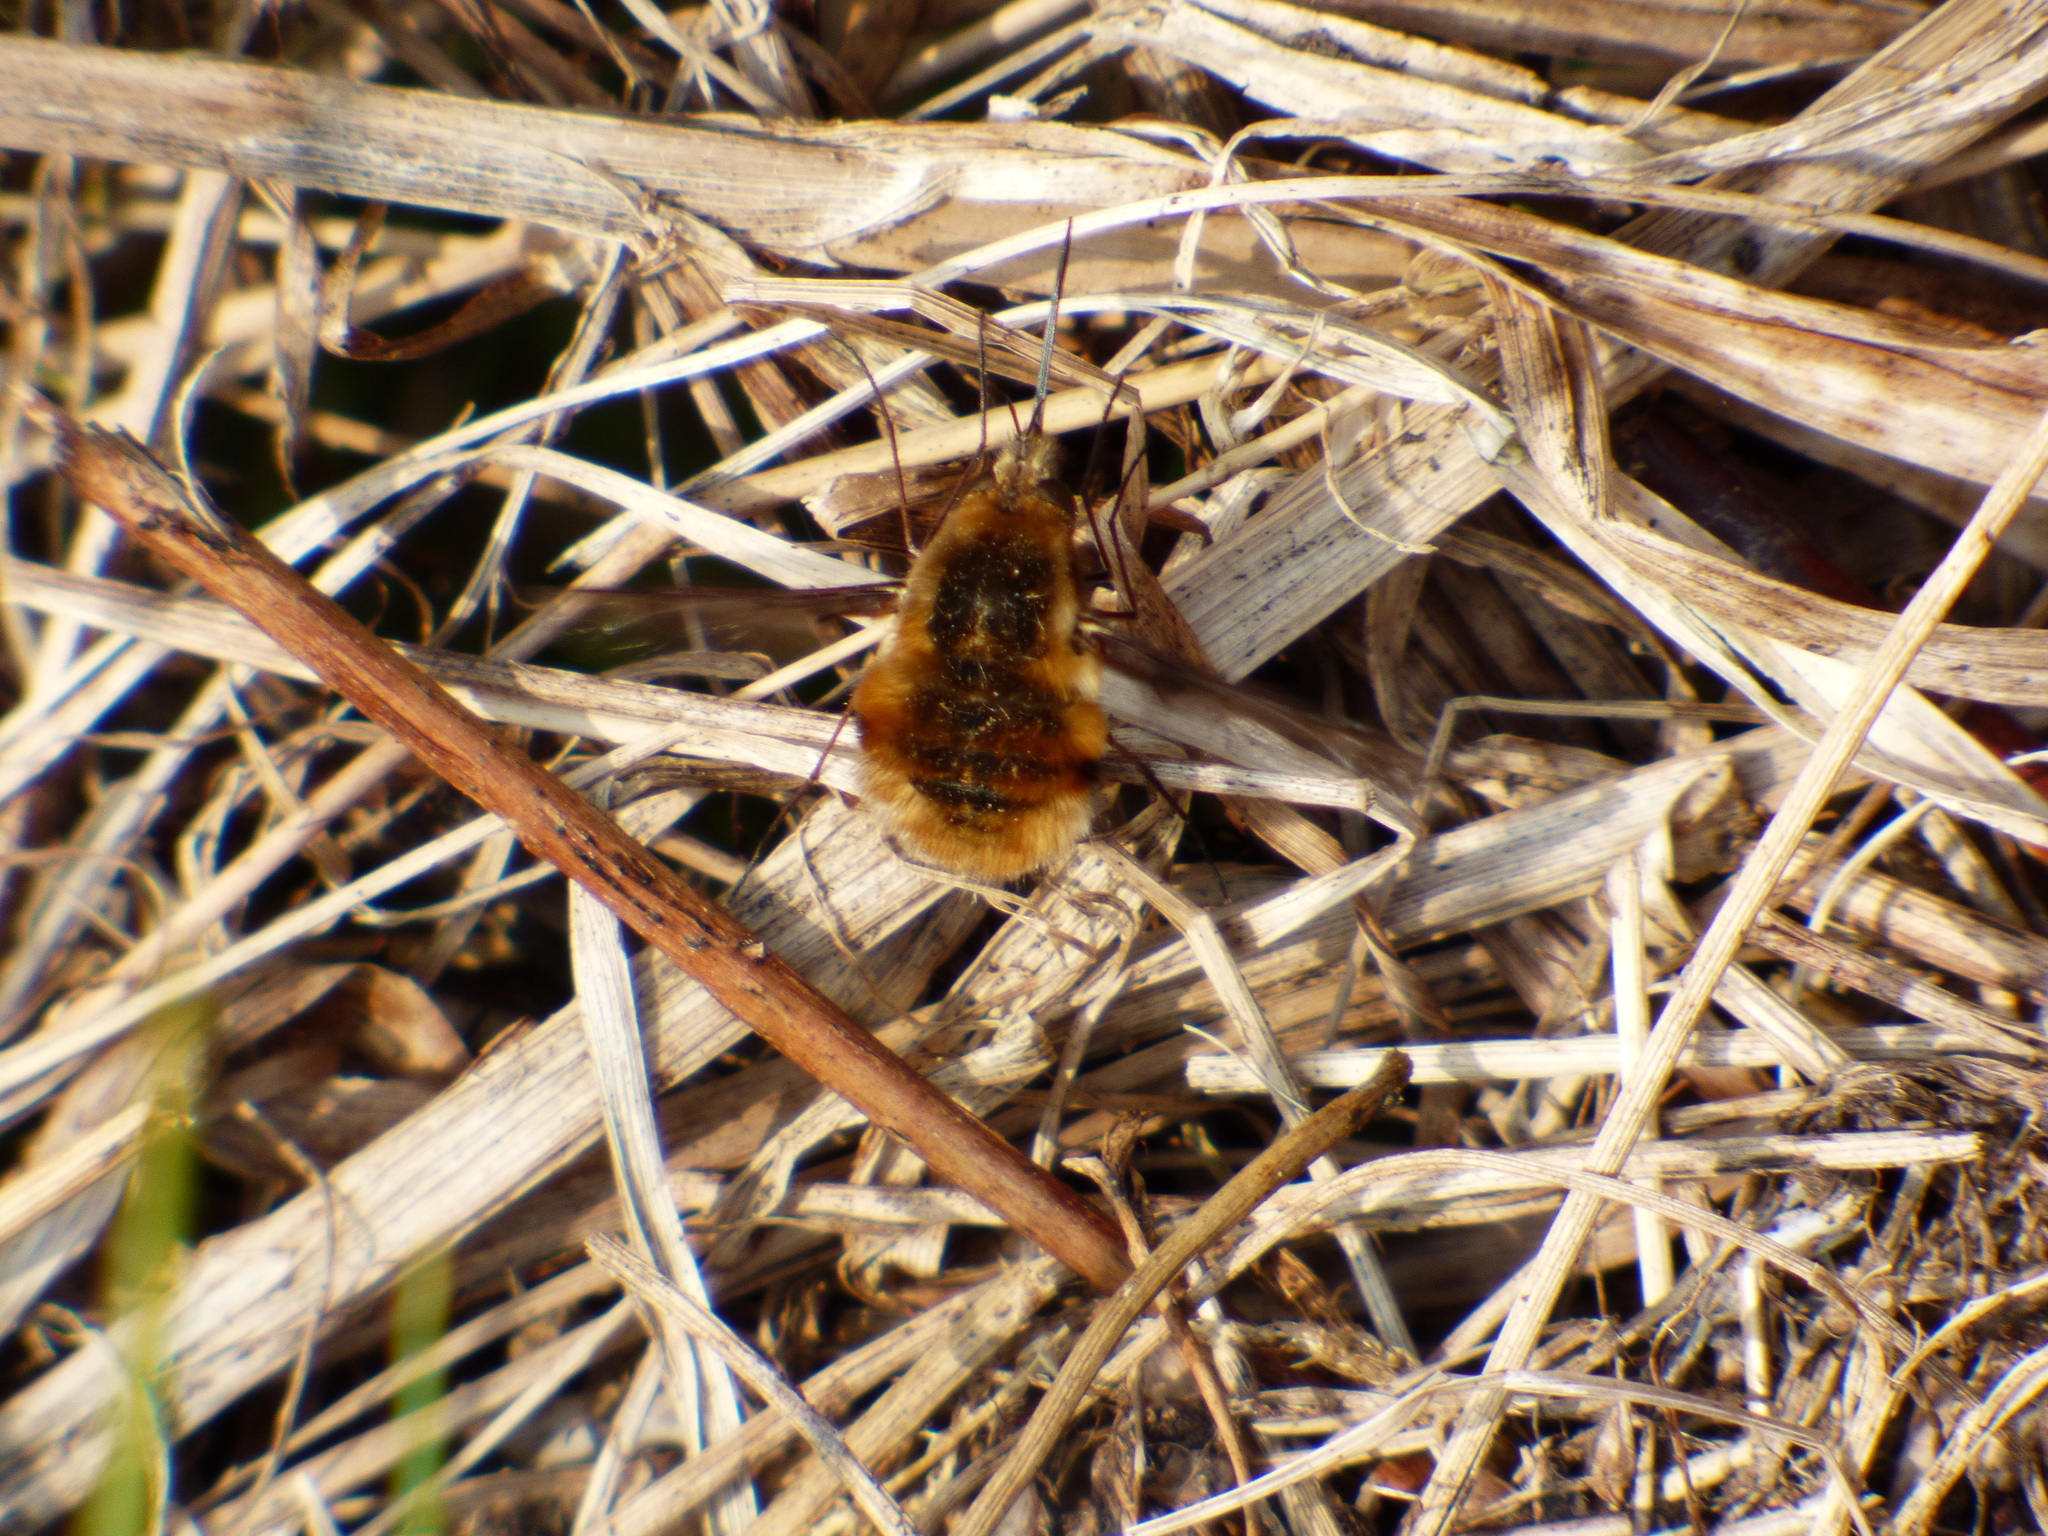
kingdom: Animalia
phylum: Arthropoda
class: Insecta
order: Diptera
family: Bombyliidae
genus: Bombylius
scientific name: Bombylius major
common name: Bee fly
